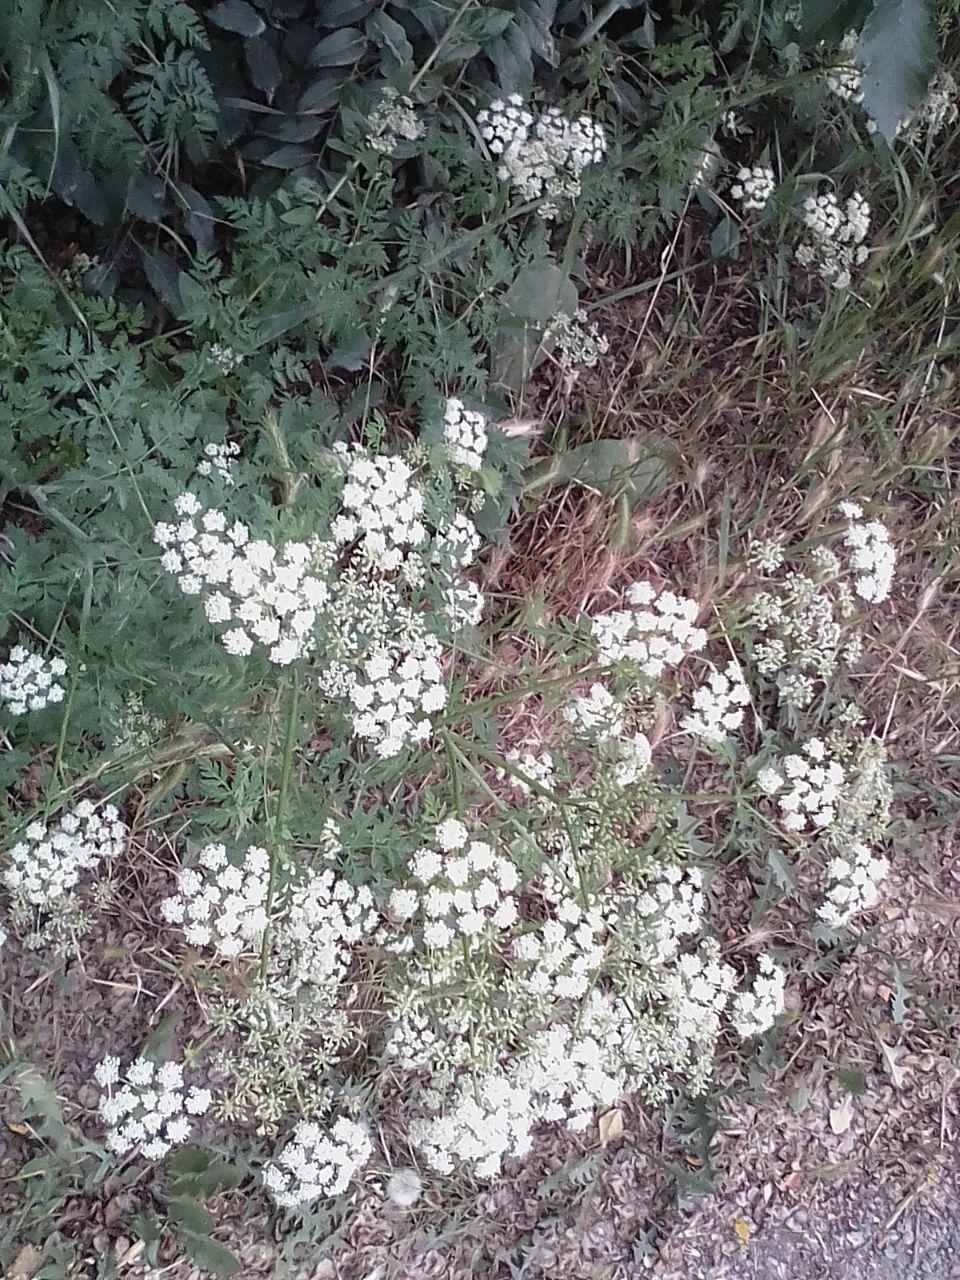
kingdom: Plantae
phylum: Tracheophyta
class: Magnoliopsida
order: Apiales
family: Apiaceae
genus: Anthriscus
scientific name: Anthriscus sylvestris
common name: Cow parsley
